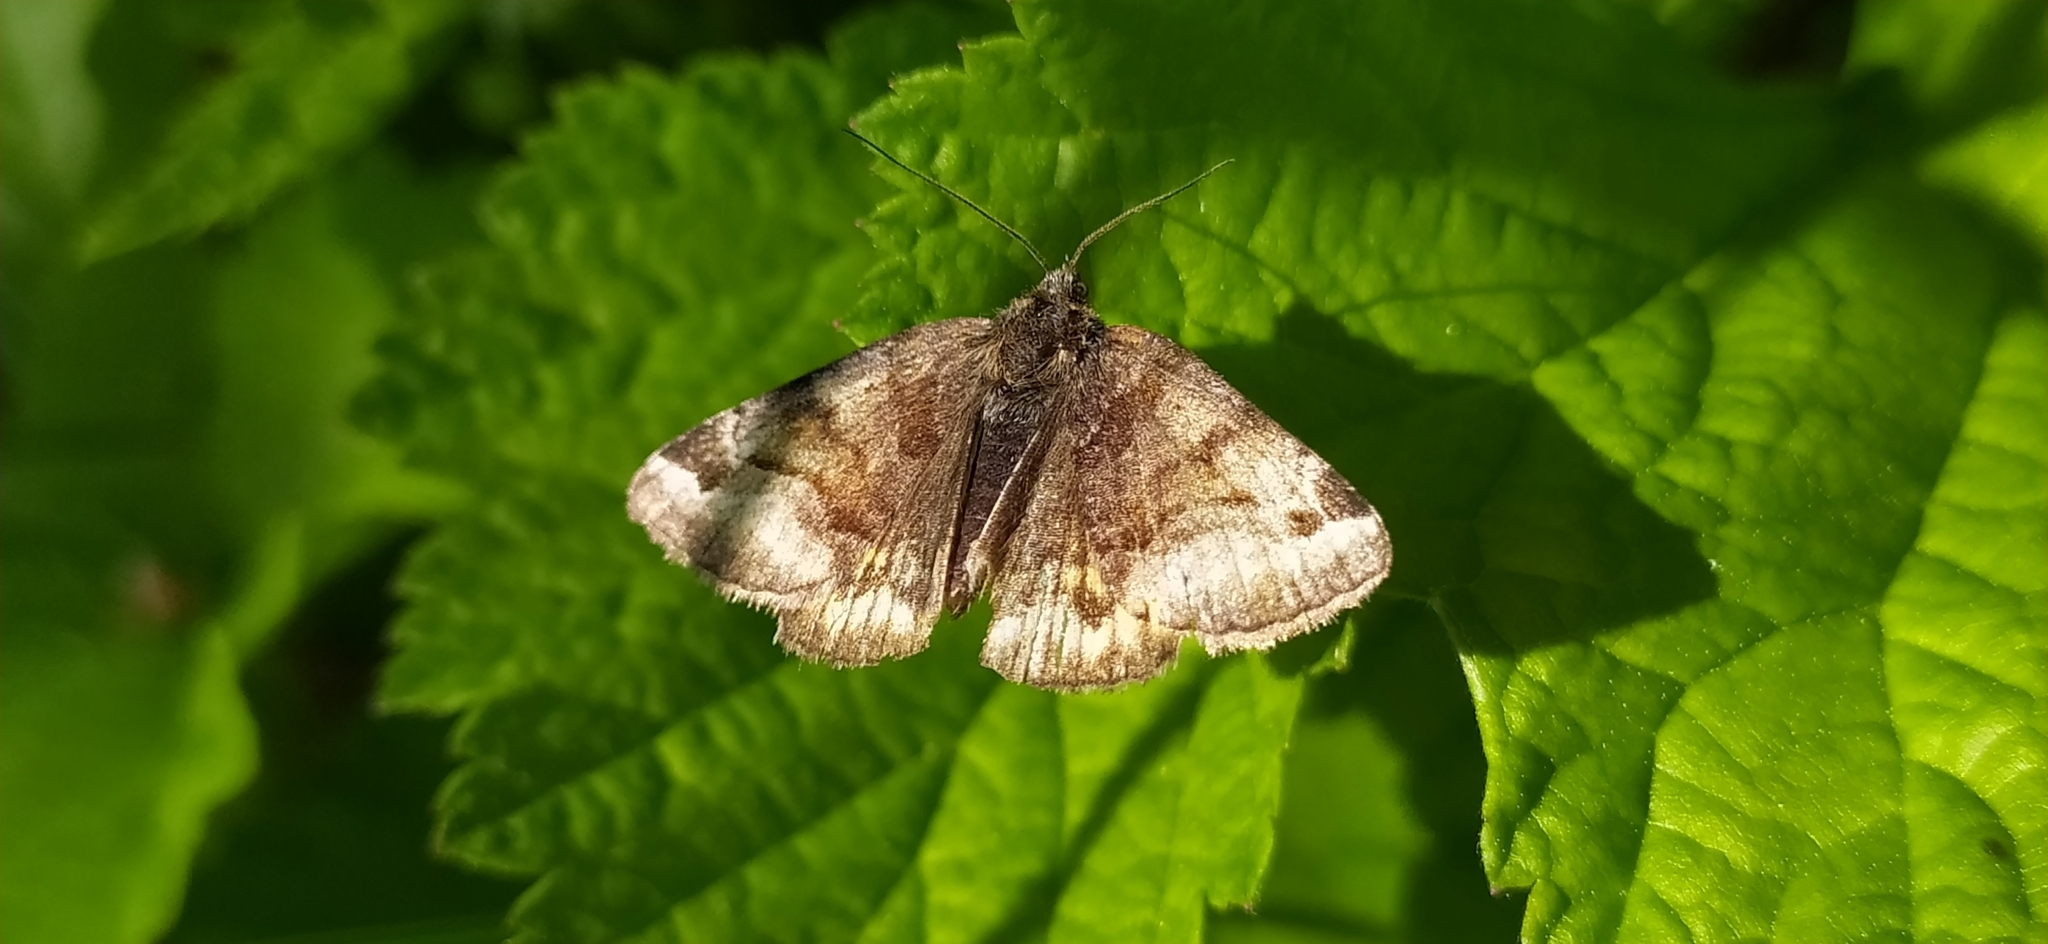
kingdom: Animalia
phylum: Arthropoda
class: Insecta
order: Lepidoptera
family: Erebidae
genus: Euclidia
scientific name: Euclidia glyphica
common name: Burnet companion
